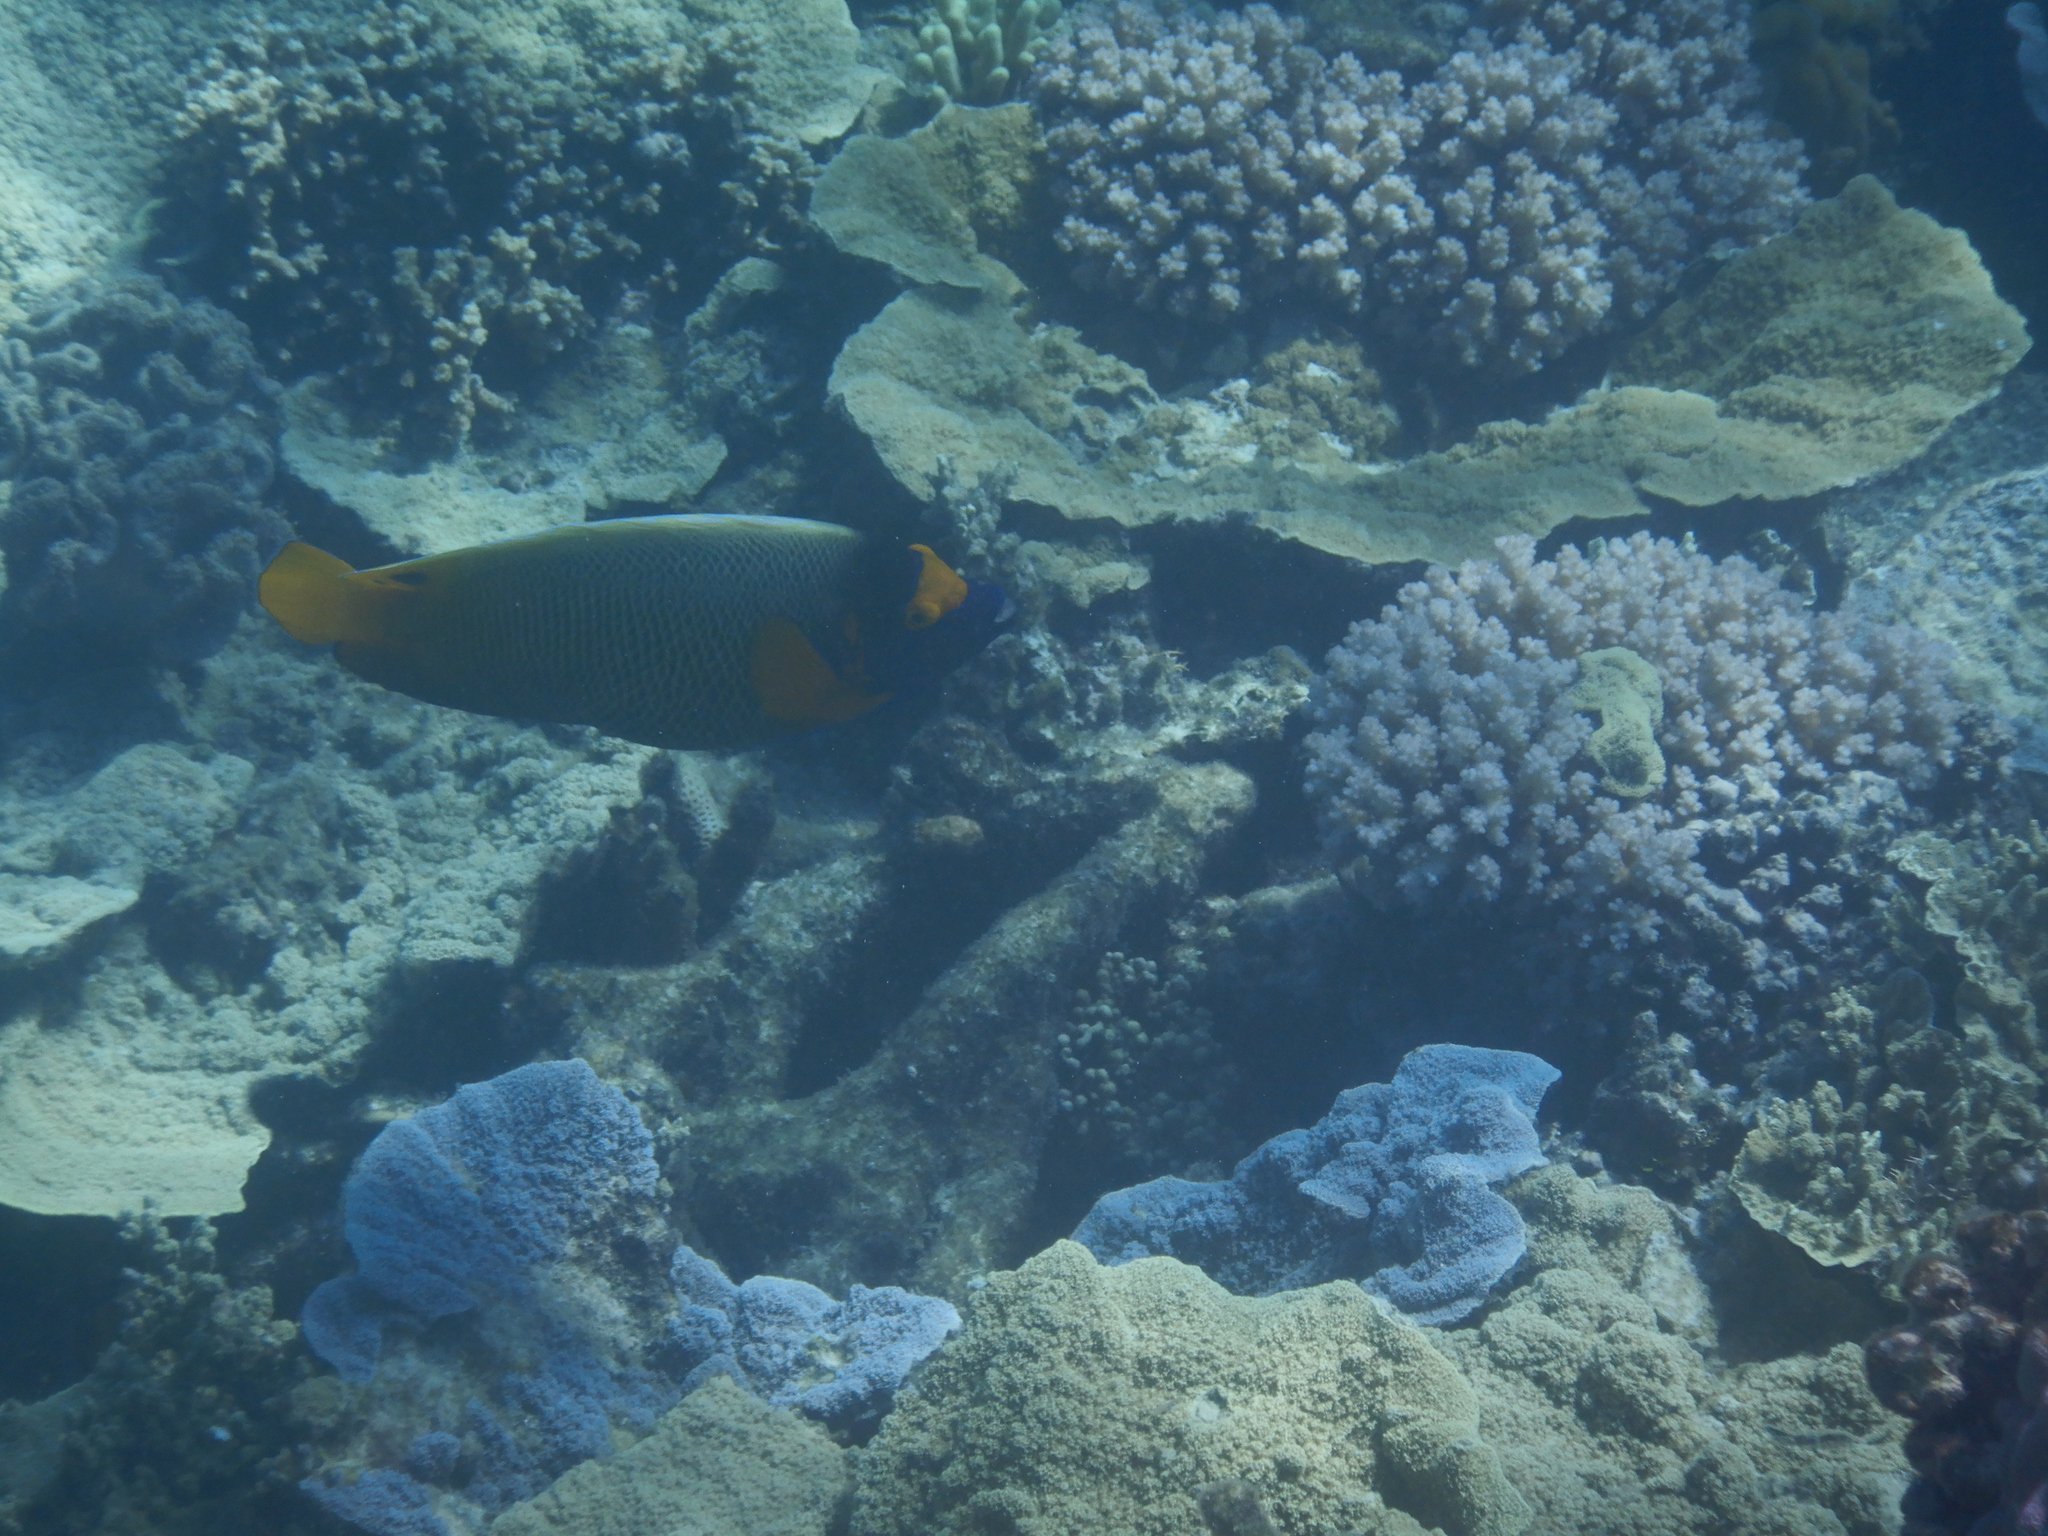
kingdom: Animalia
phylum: Chordata
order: Perciformes
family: Pomacanthidae
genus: Pomacanthus
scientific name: Pomacanthus xanthometopon
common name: Yellow-faced angelfish
